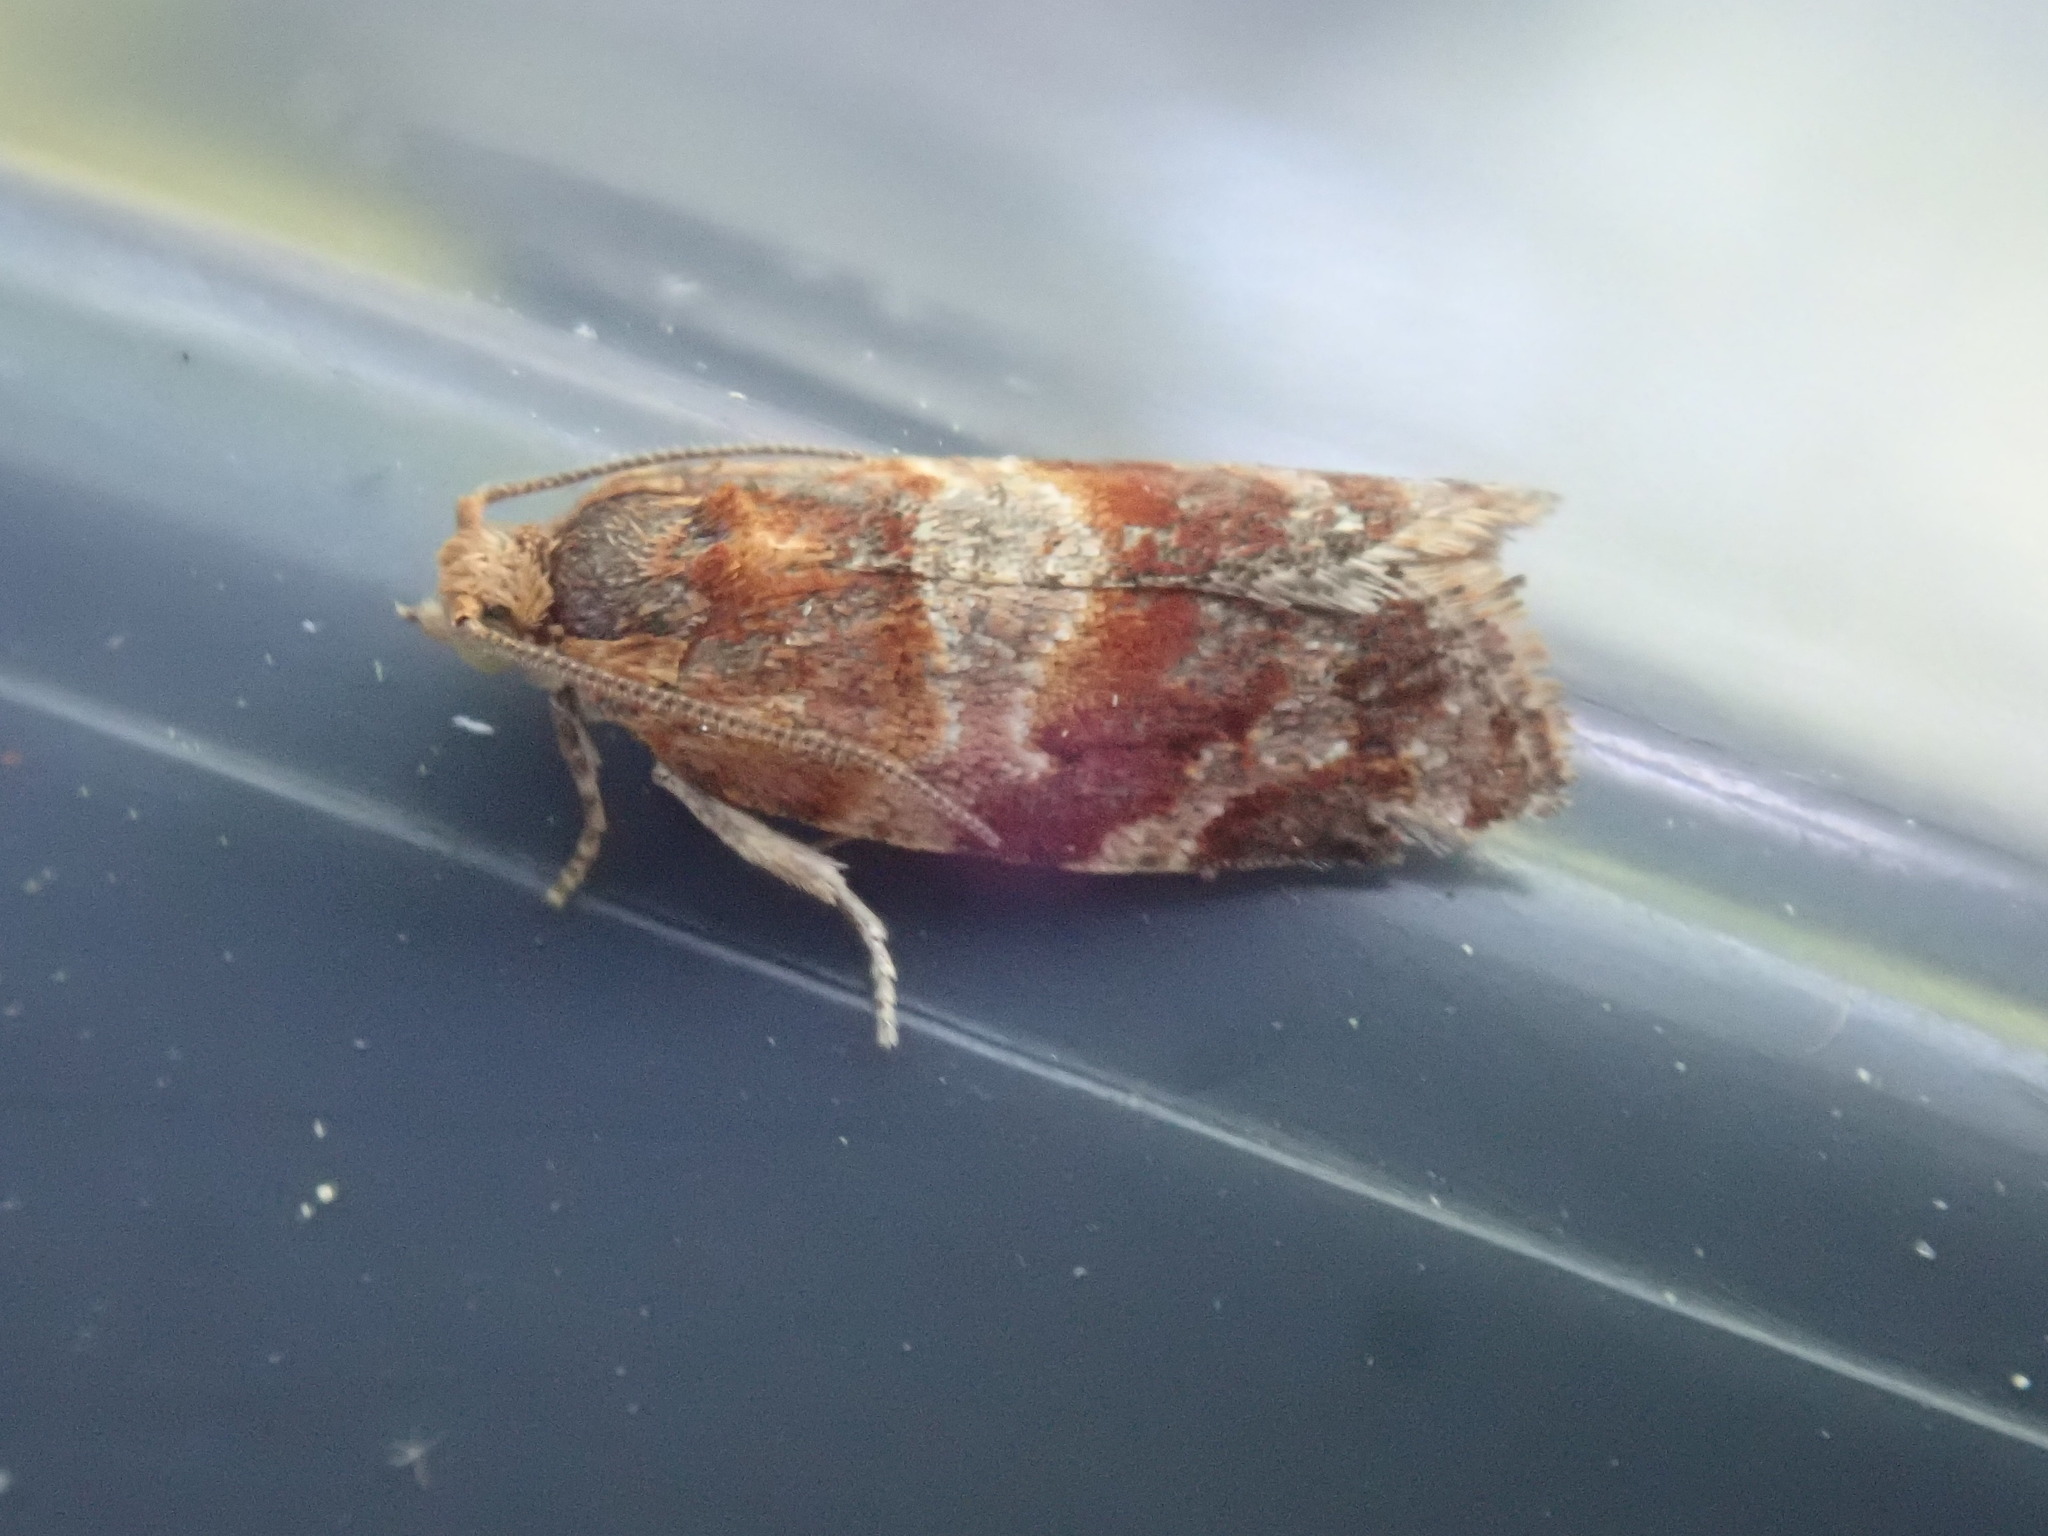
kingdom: Animalia
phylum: Arthropoda
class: Insecta
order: Lepidoptera
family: Tortricidae
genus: Argyrotaenia
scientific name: Argyrotaenia pinatubana
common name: Pine tube moth
